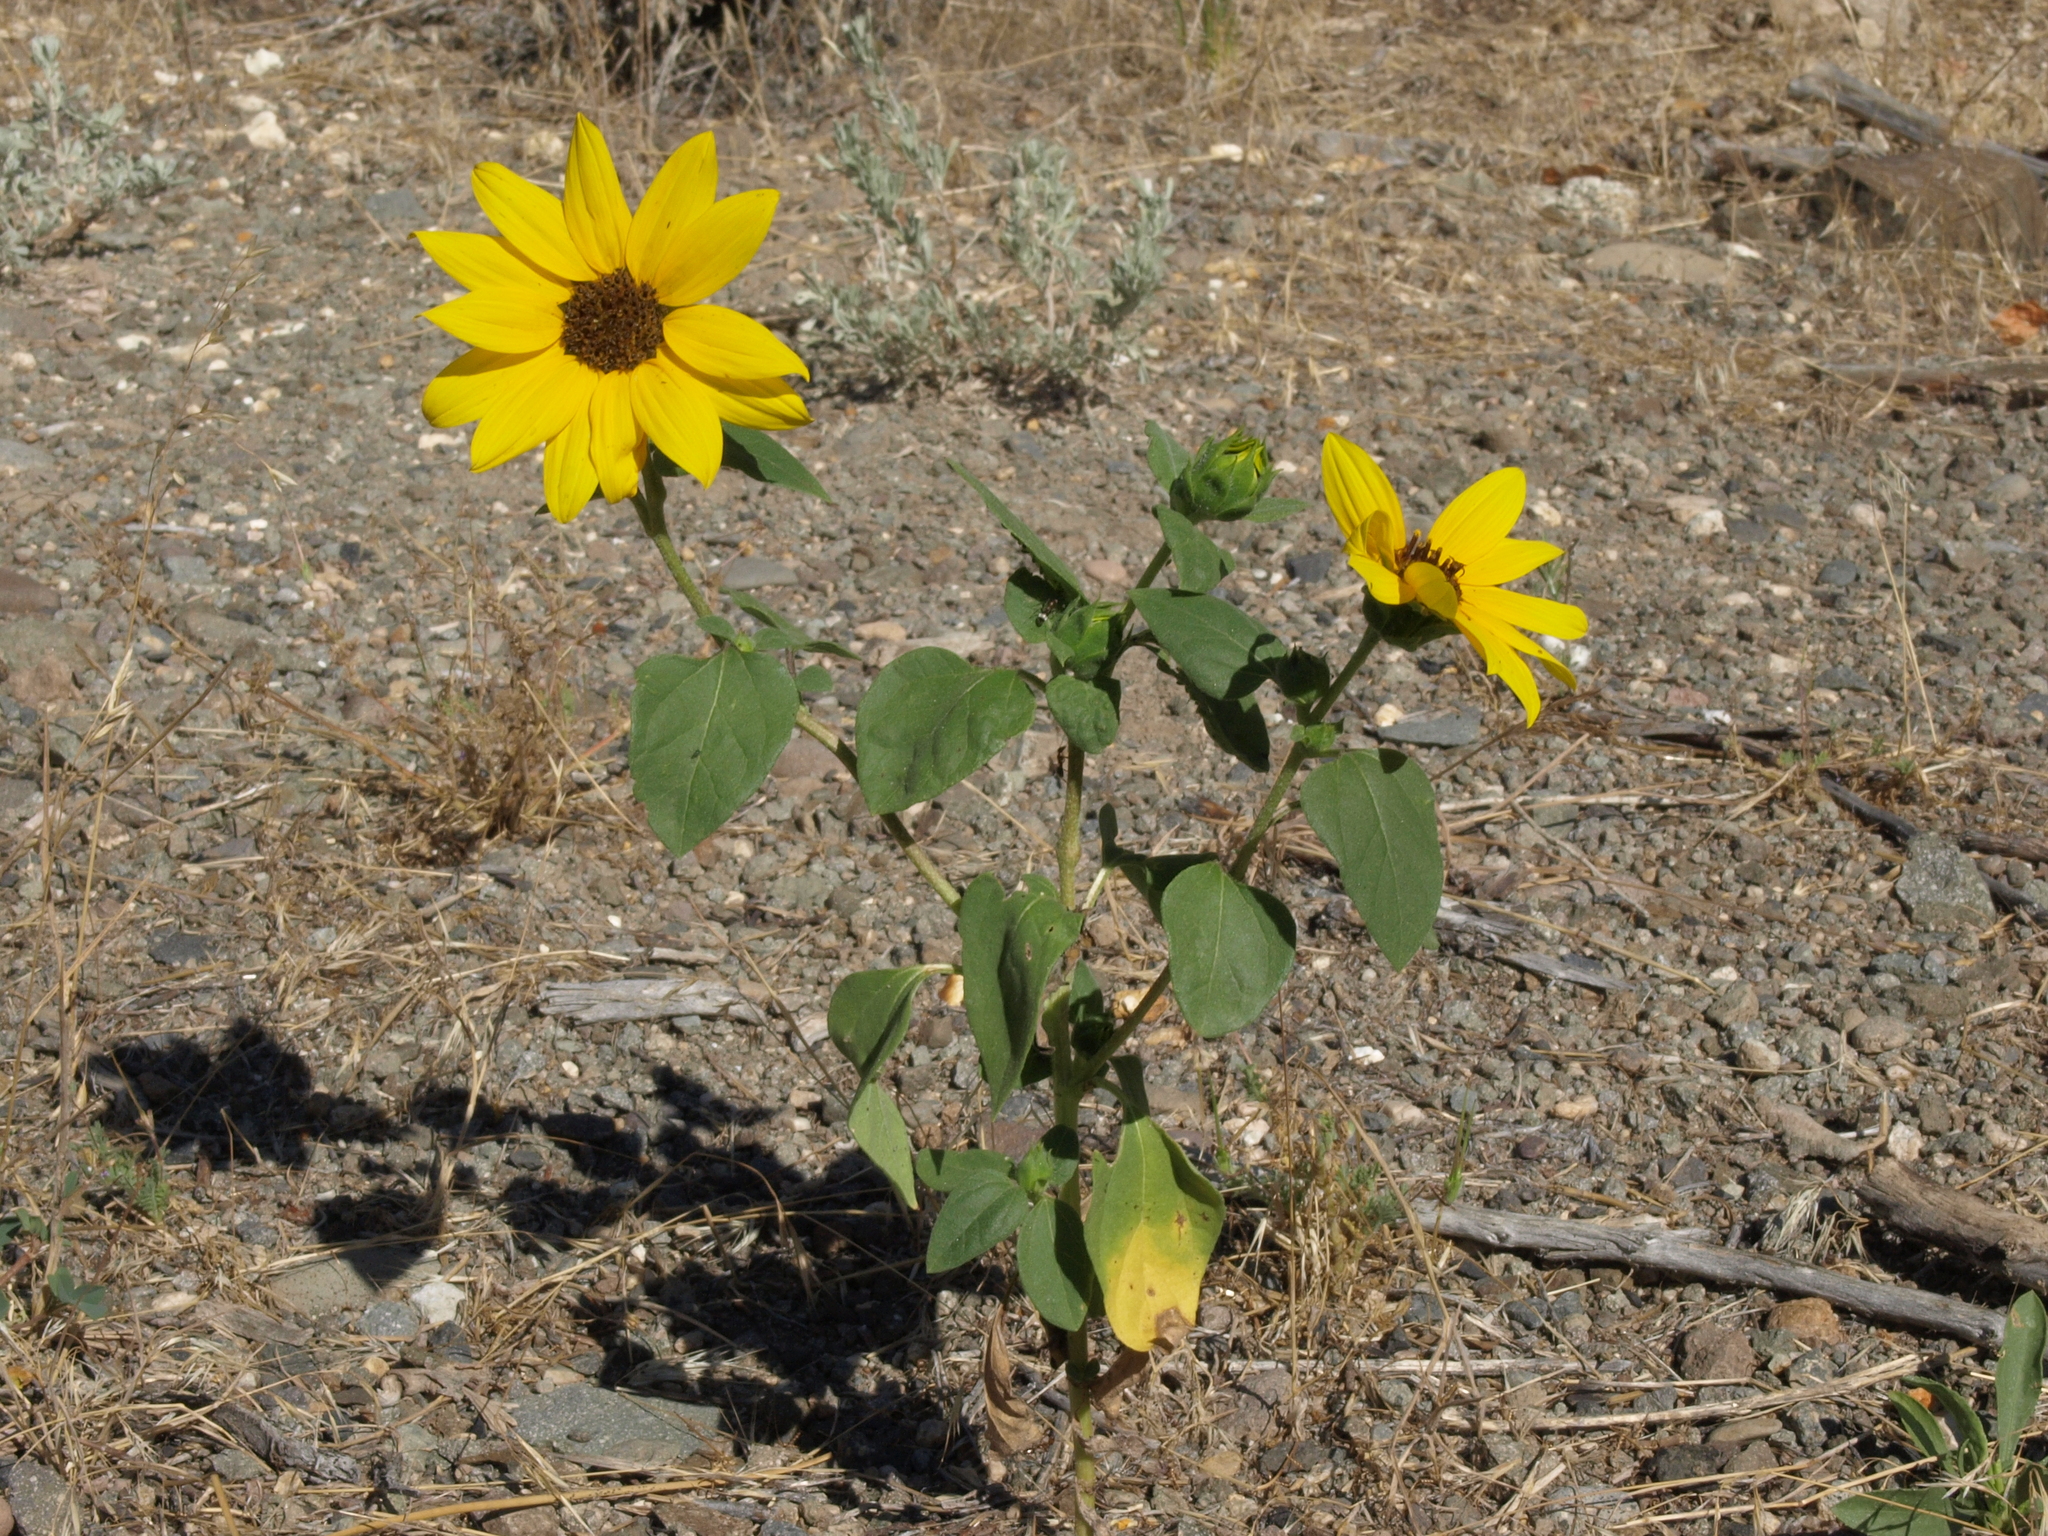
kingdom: Plantae
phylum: Tracheophyta
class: Magnoliopsida
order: Asterales
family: Asteraceae
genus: Helianthus
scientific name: Helianthus annuus
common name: Sunflower
